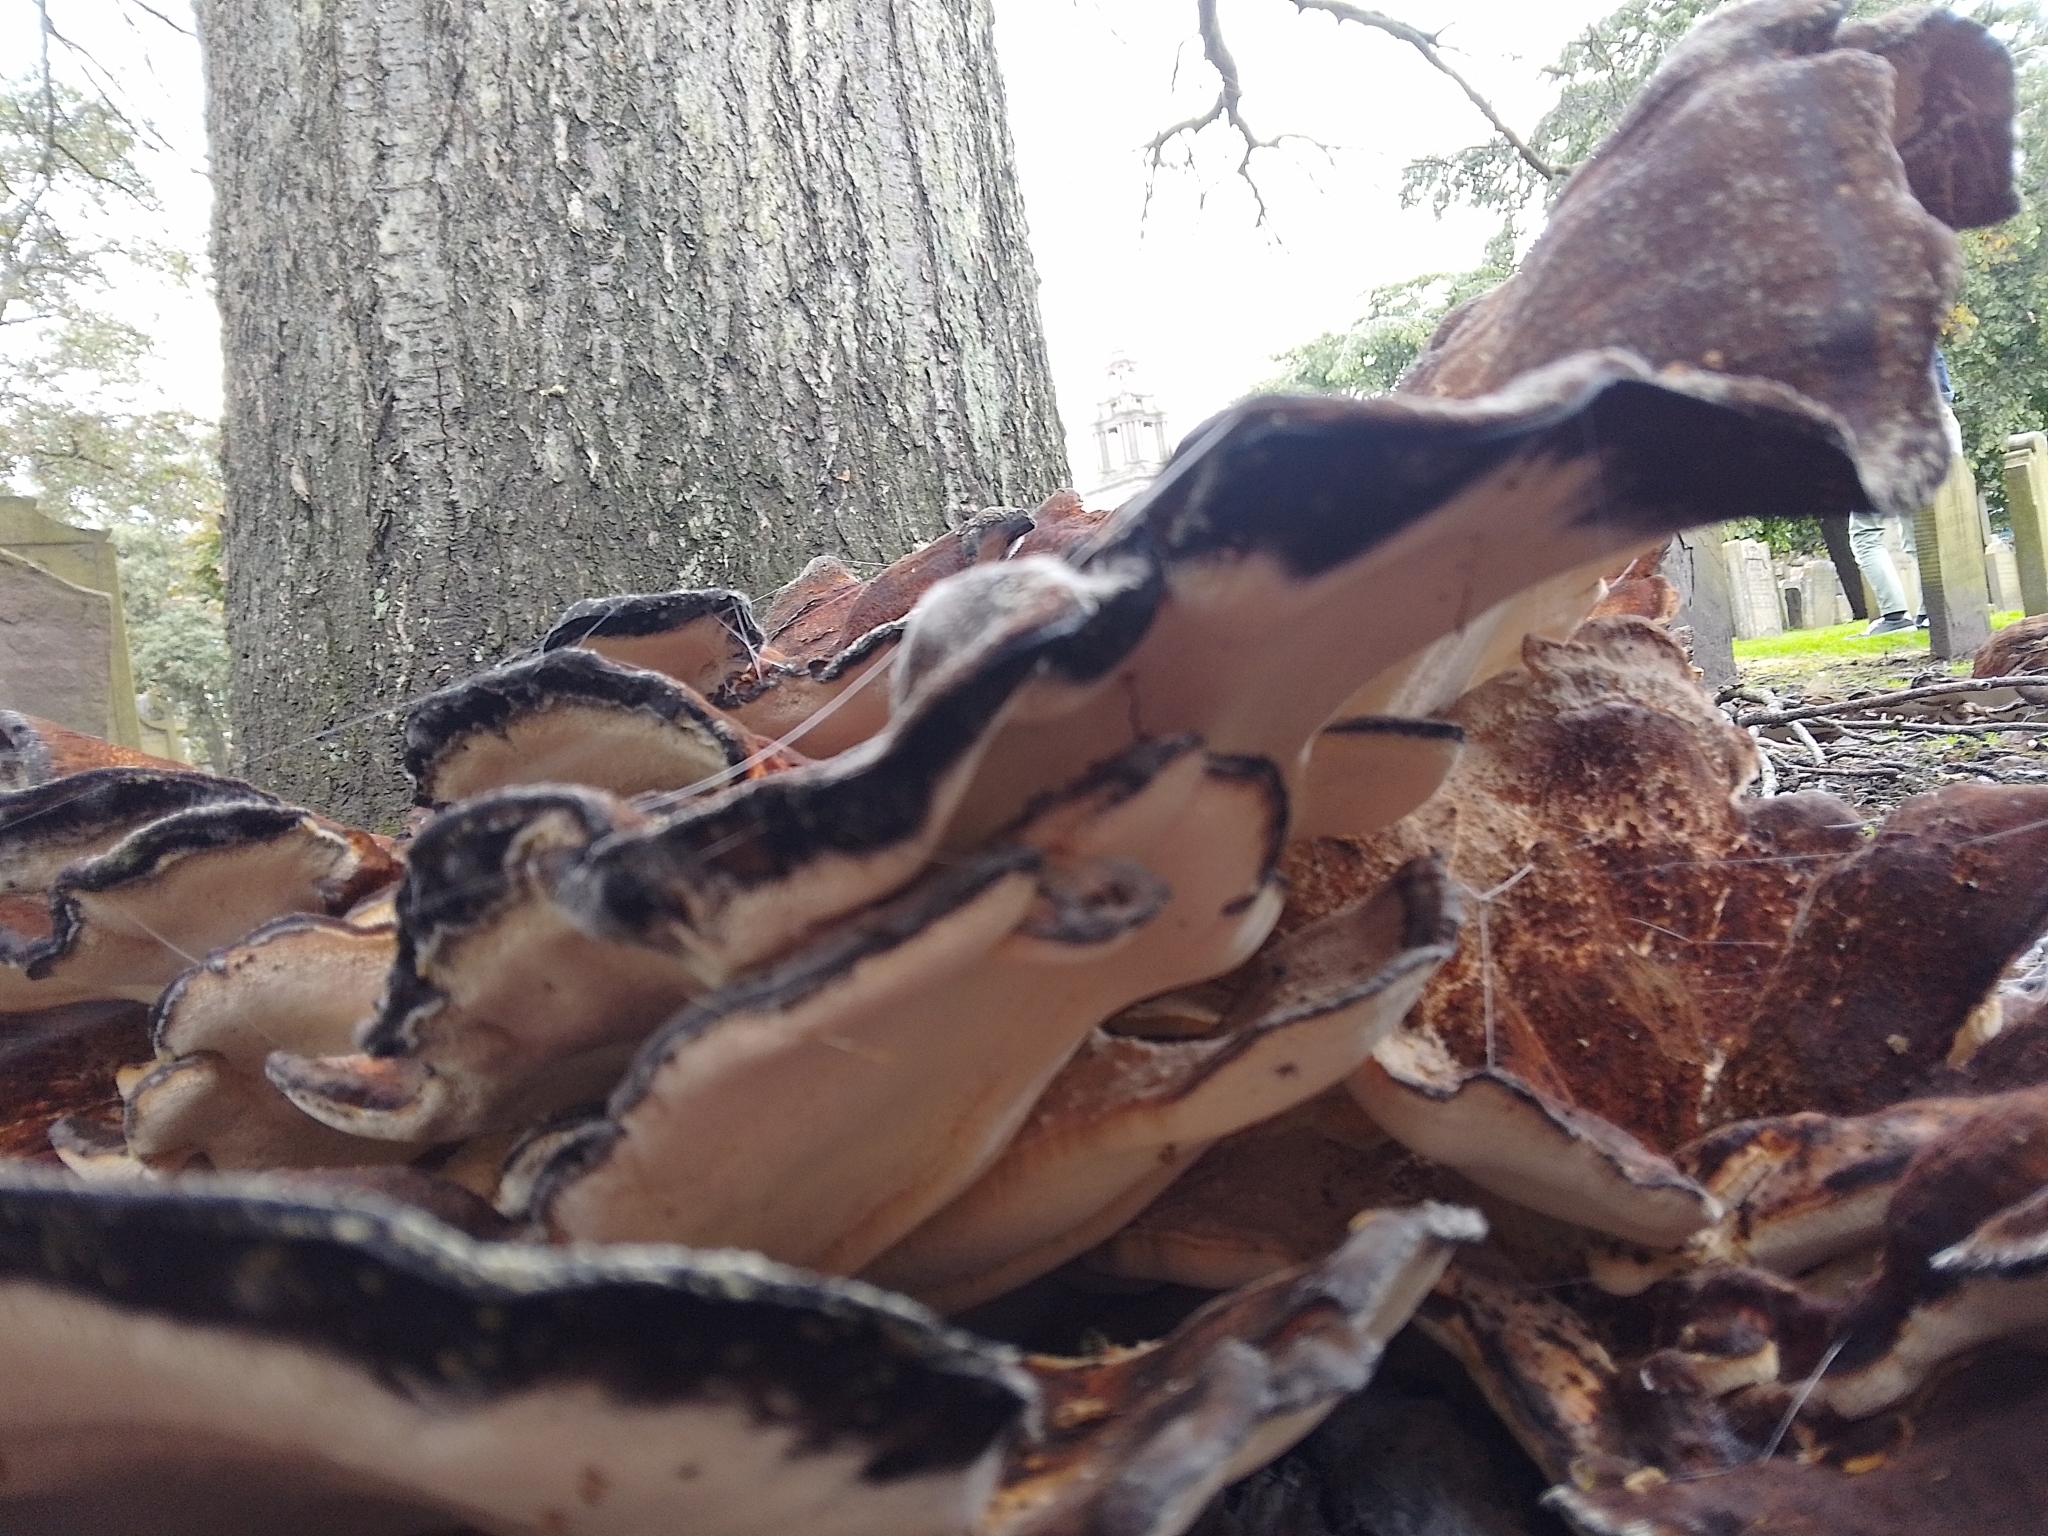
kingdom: Fungi
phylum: Basidiomycota
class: Agaricomycetes
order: Polyporales
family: Meripilaceae
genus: Meripilus
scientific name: Meripilus giganteus
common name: Giant polypore
